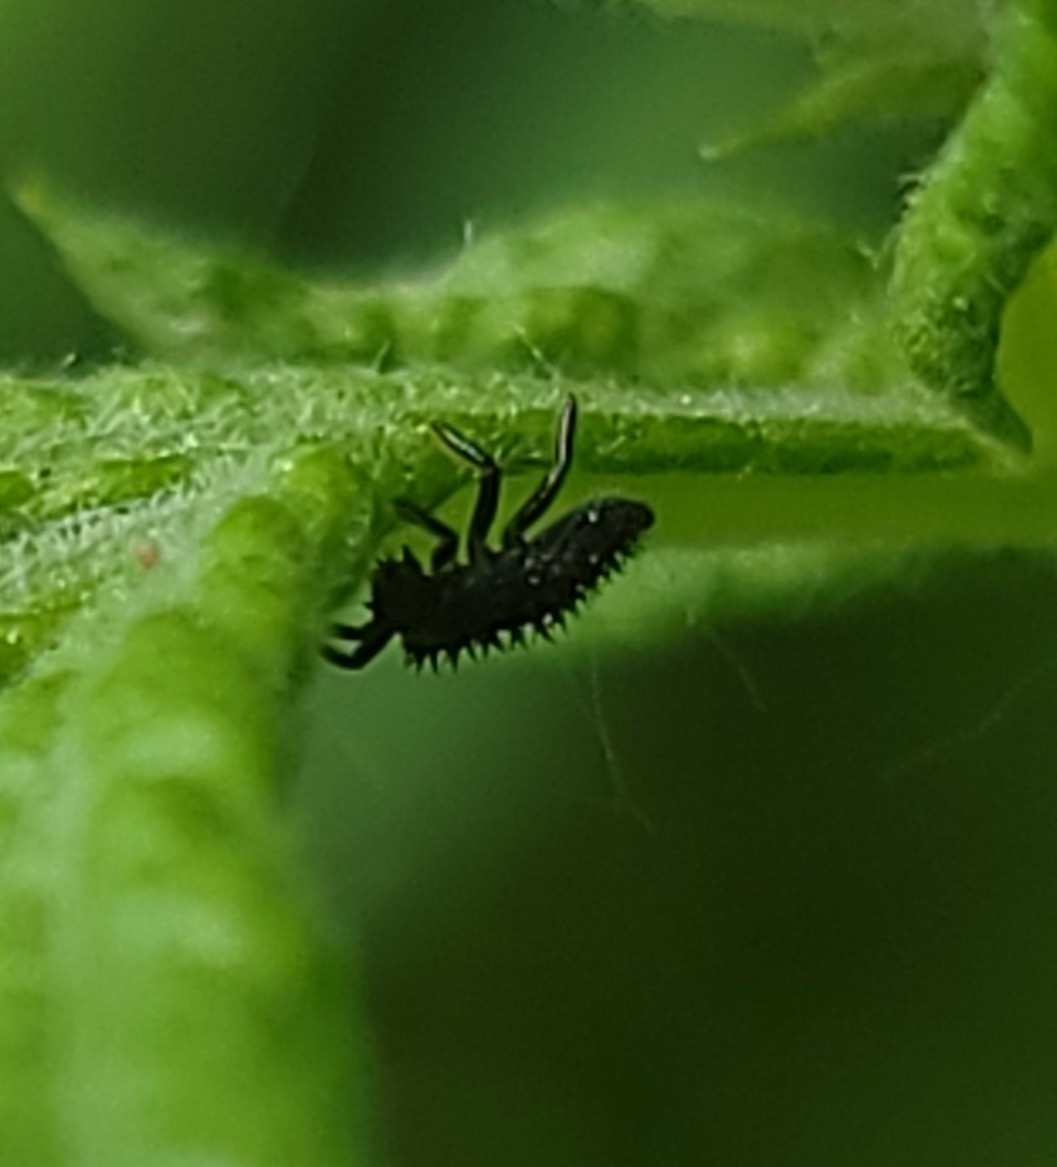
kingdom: Animalia
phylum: Arthropoda
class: Insecta
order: Coleoptera
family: Coccinellidae
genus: Harmonia
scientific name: Harmonia axyridis
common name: Harlequin ladybird
